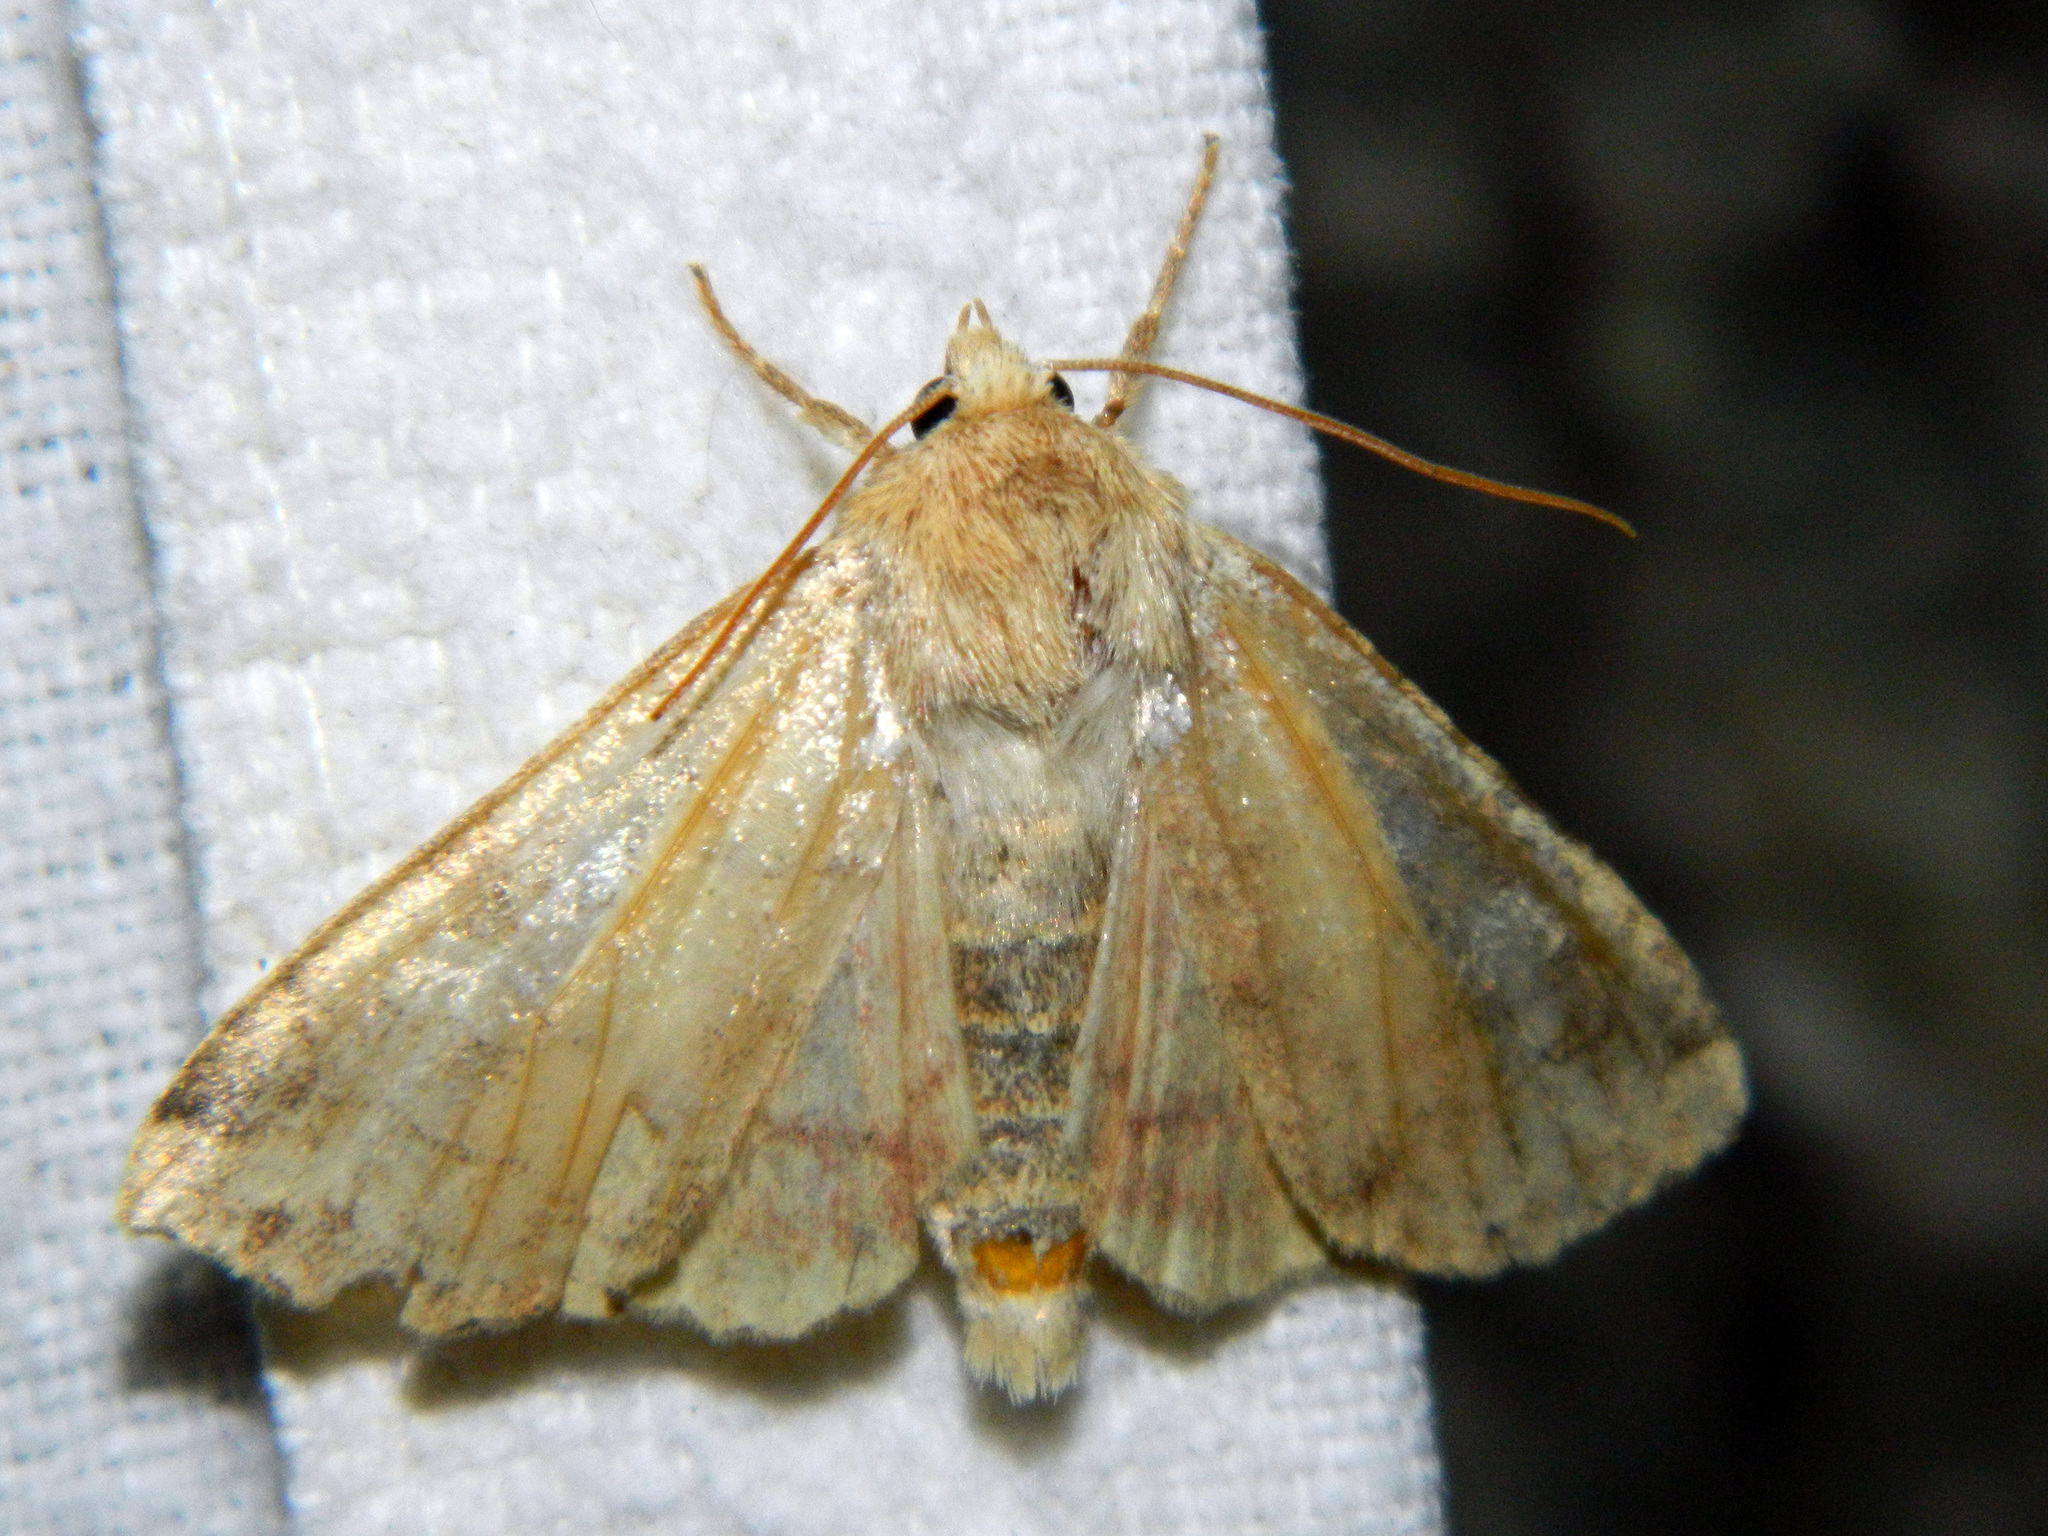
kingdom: Animalia
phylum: Arthropoda
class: Insecta
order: Lepidoptera
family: Noctuidae
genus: Enargia
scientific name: Enargia decolor
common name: Aspen twoleaf tier moth
